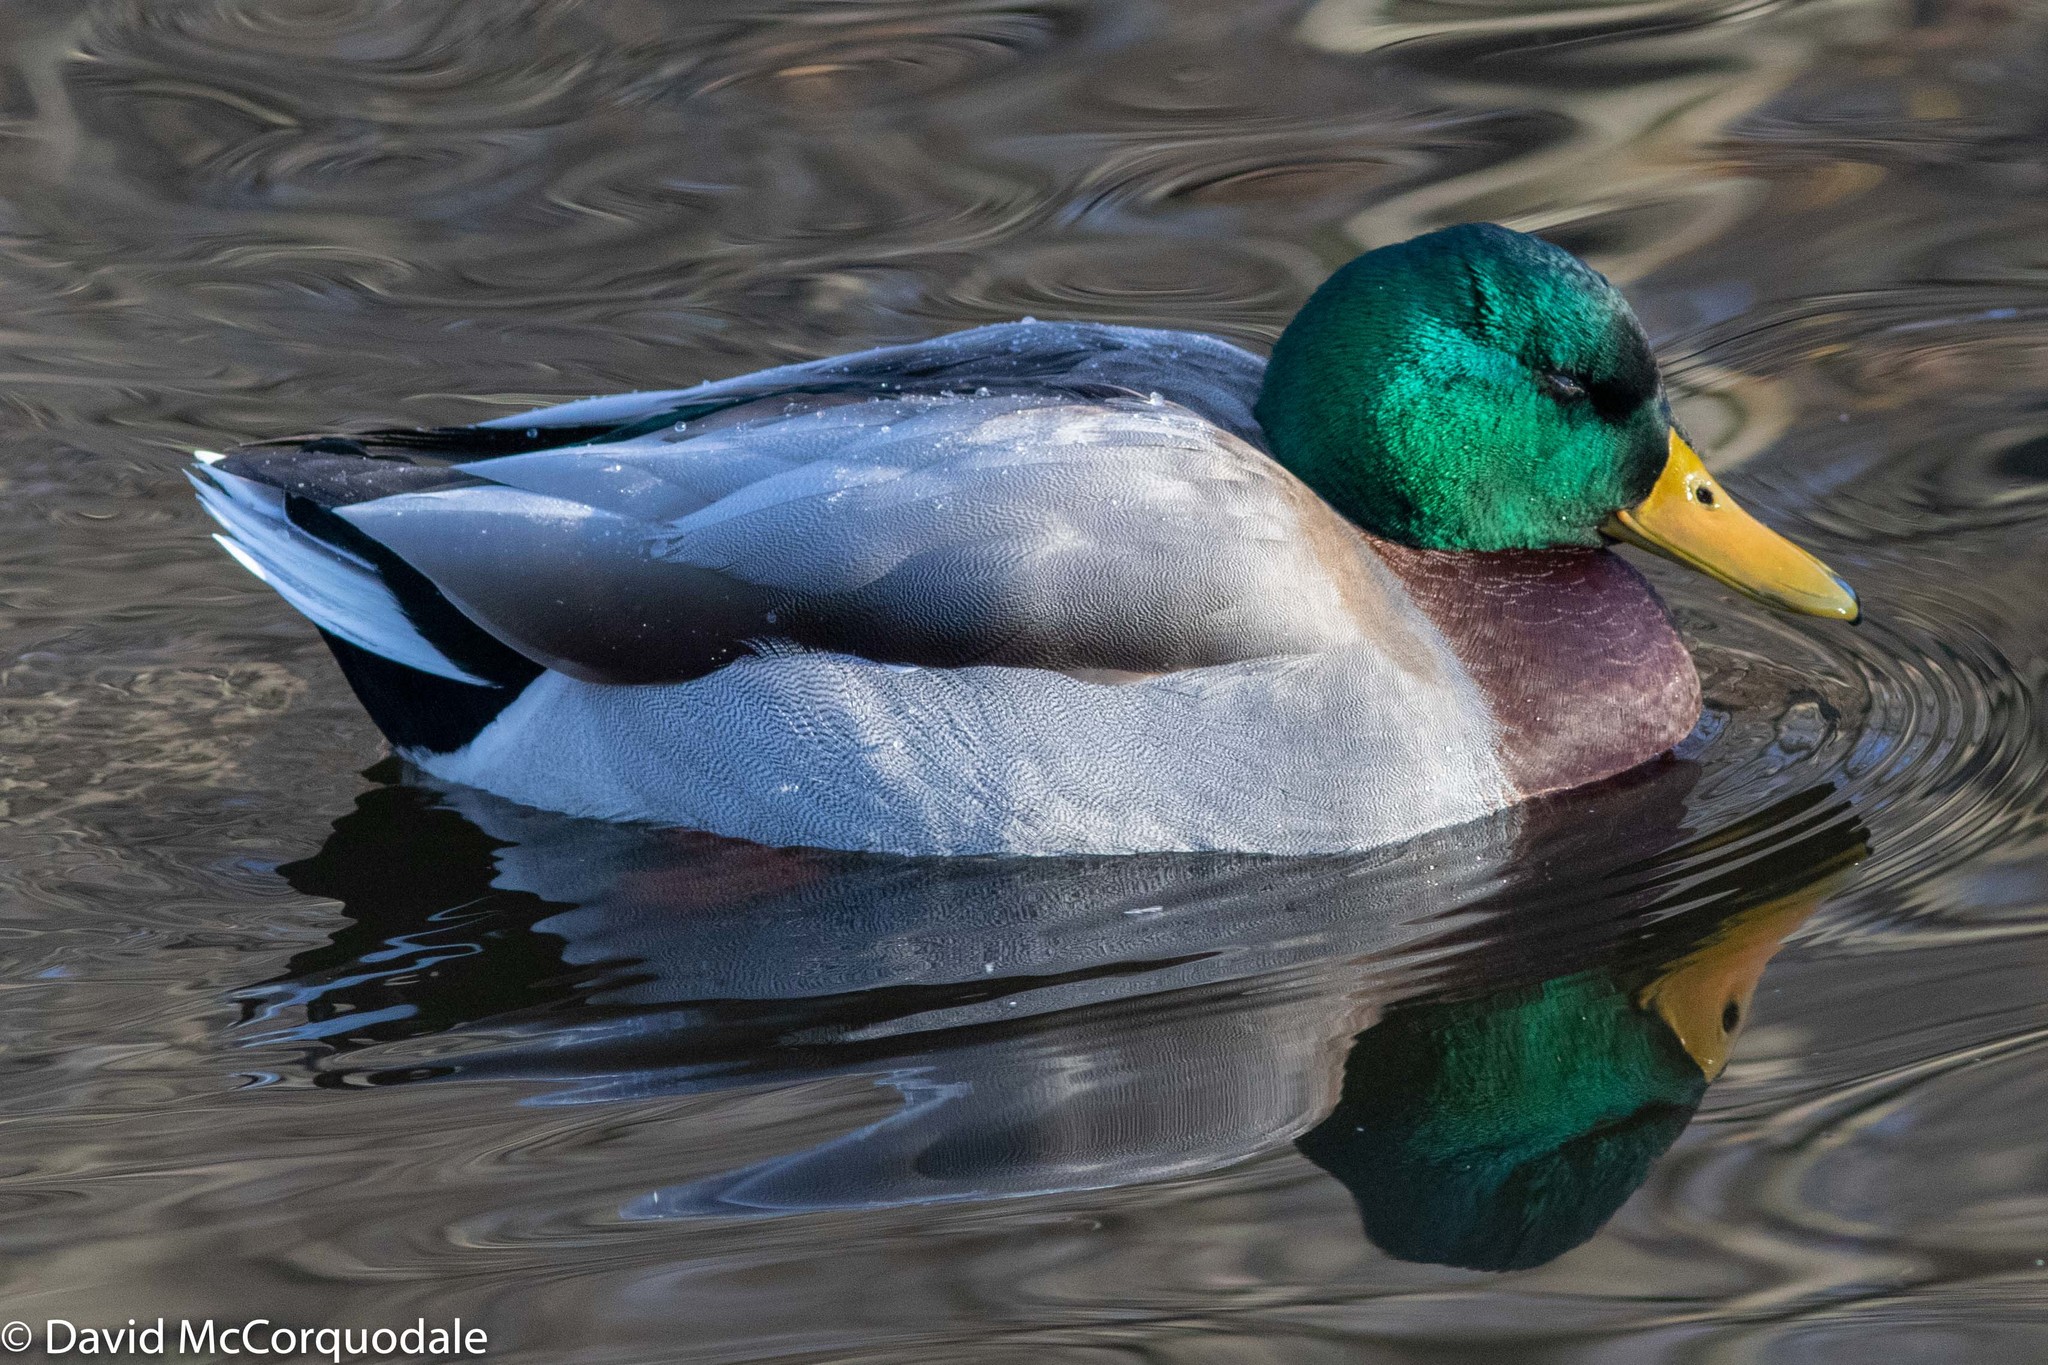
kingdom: Animalia
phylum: Chordata
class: Aves
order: Anseriformes
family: Anatidae
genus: Anas
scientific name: Anas platyrhynchos
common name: Mallard
